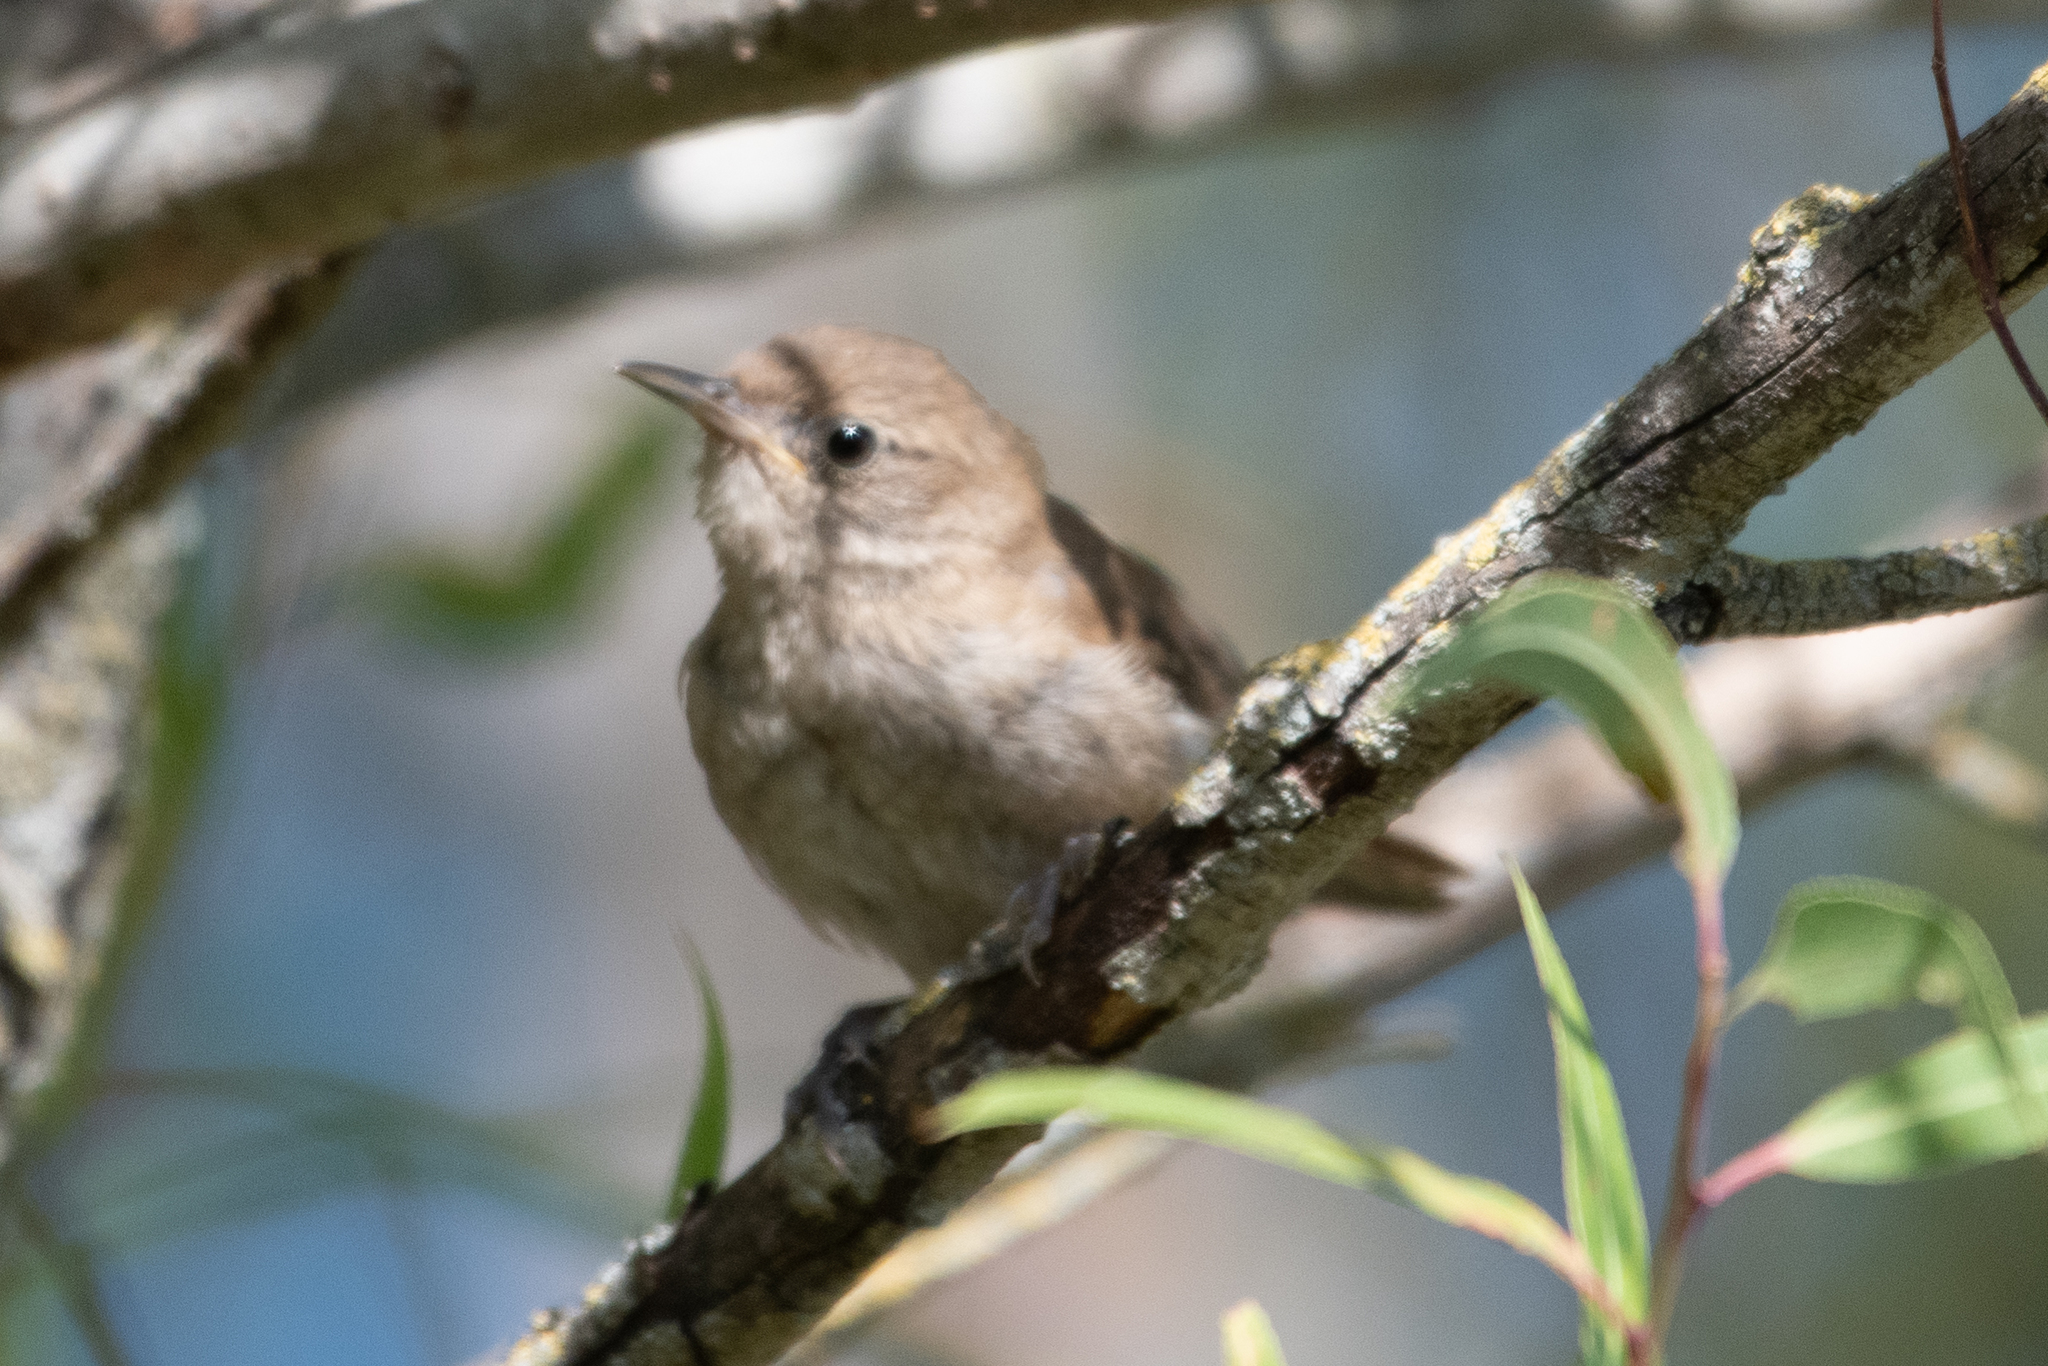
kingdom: Animalia
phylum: Chordata
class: Aves
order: Passeriformes
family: Troglodytidae
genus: Troglodytes
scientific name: Troglodytes aedon
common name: House wren
